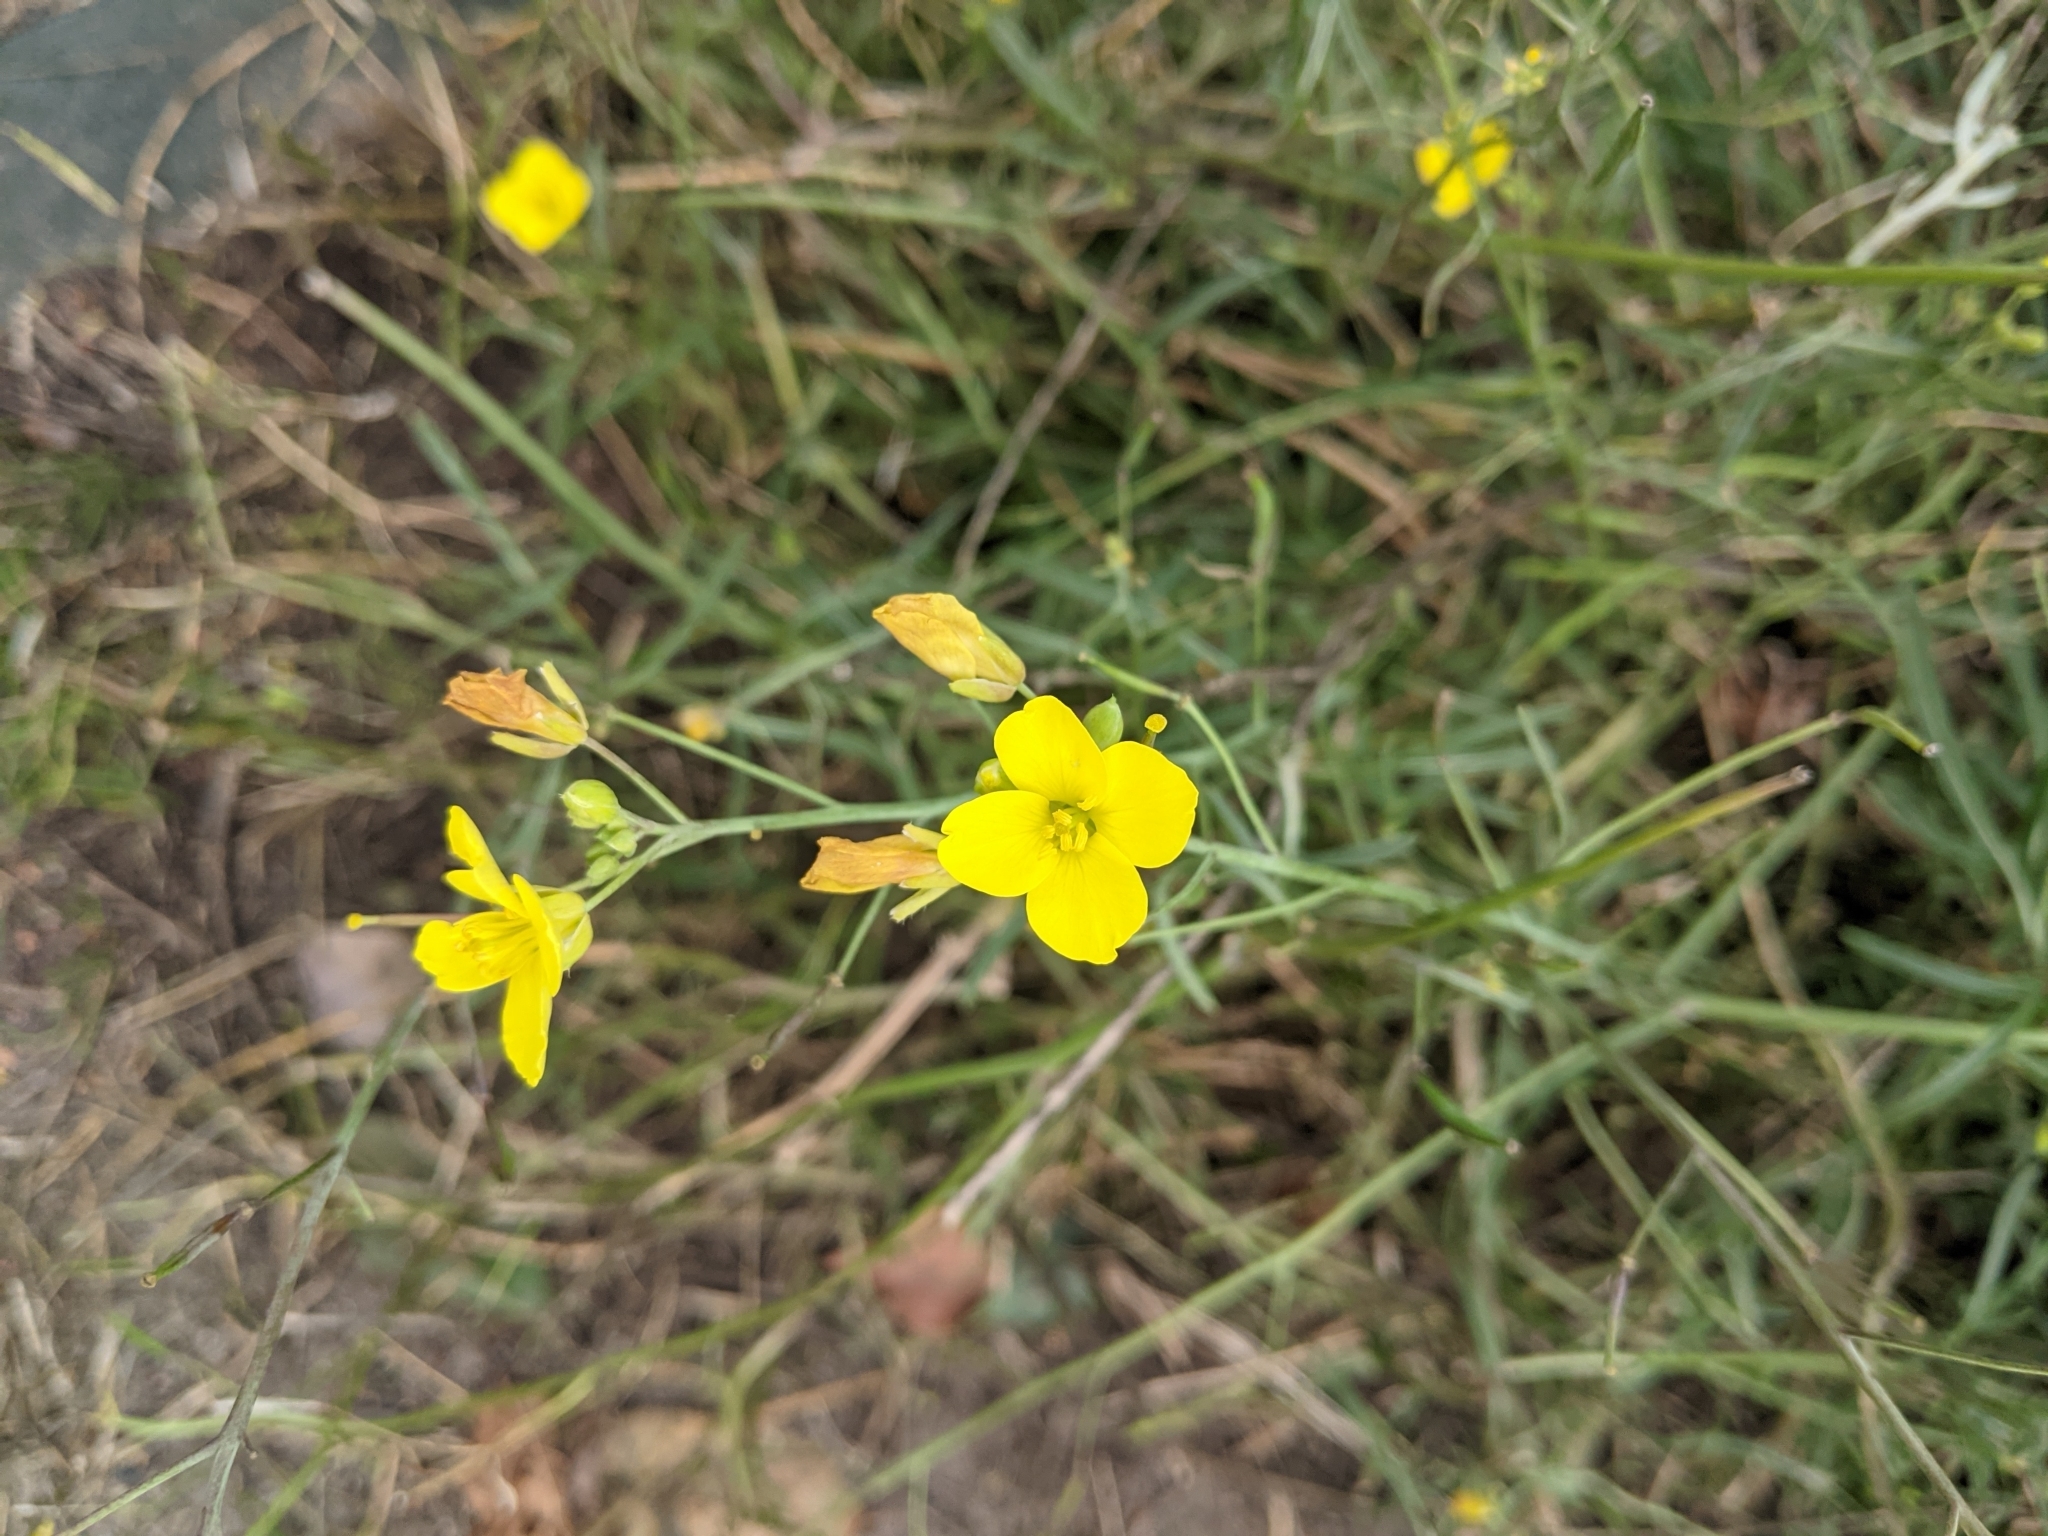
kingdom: Plantae
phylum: Tracheophyta
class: Magnoliopsida
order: Brassicales
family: Brassicaceae
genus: Diplotaxis
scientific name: Diplotaxis tenuifolia
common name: Perennial wall-rocket
